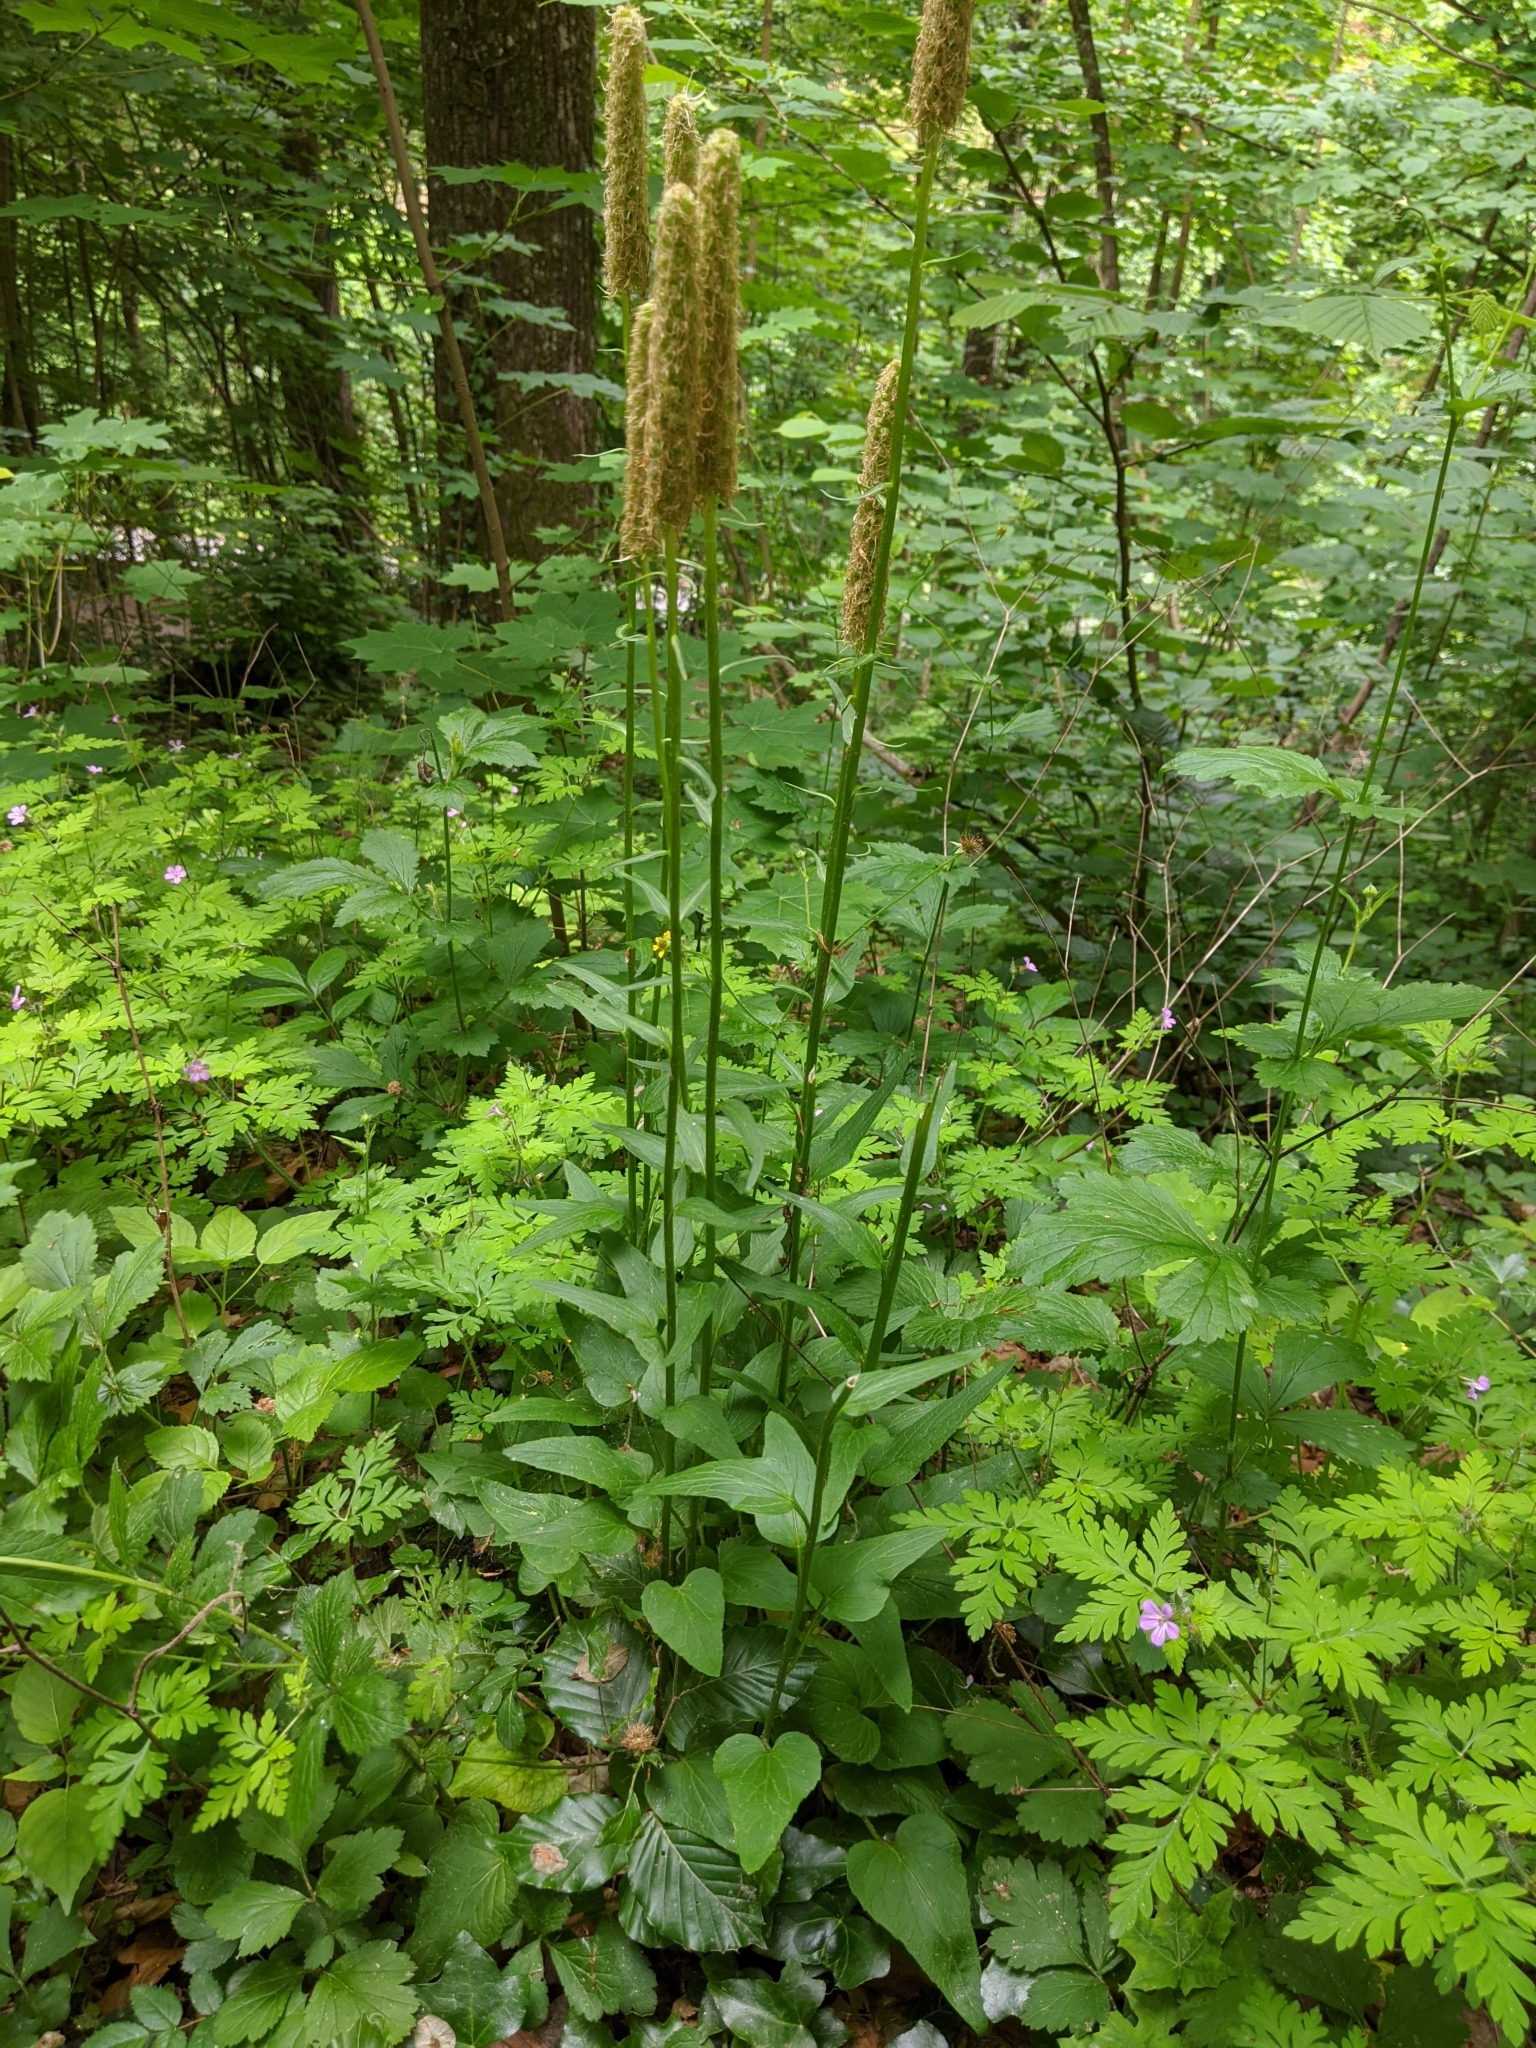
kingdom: Plantae
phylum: Tracheophyta
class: Magnoliopsida
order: Asterales
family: Campanulaceae
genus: Phyteuma
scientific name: Phyteuma spicatum
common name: Spiked rampion
